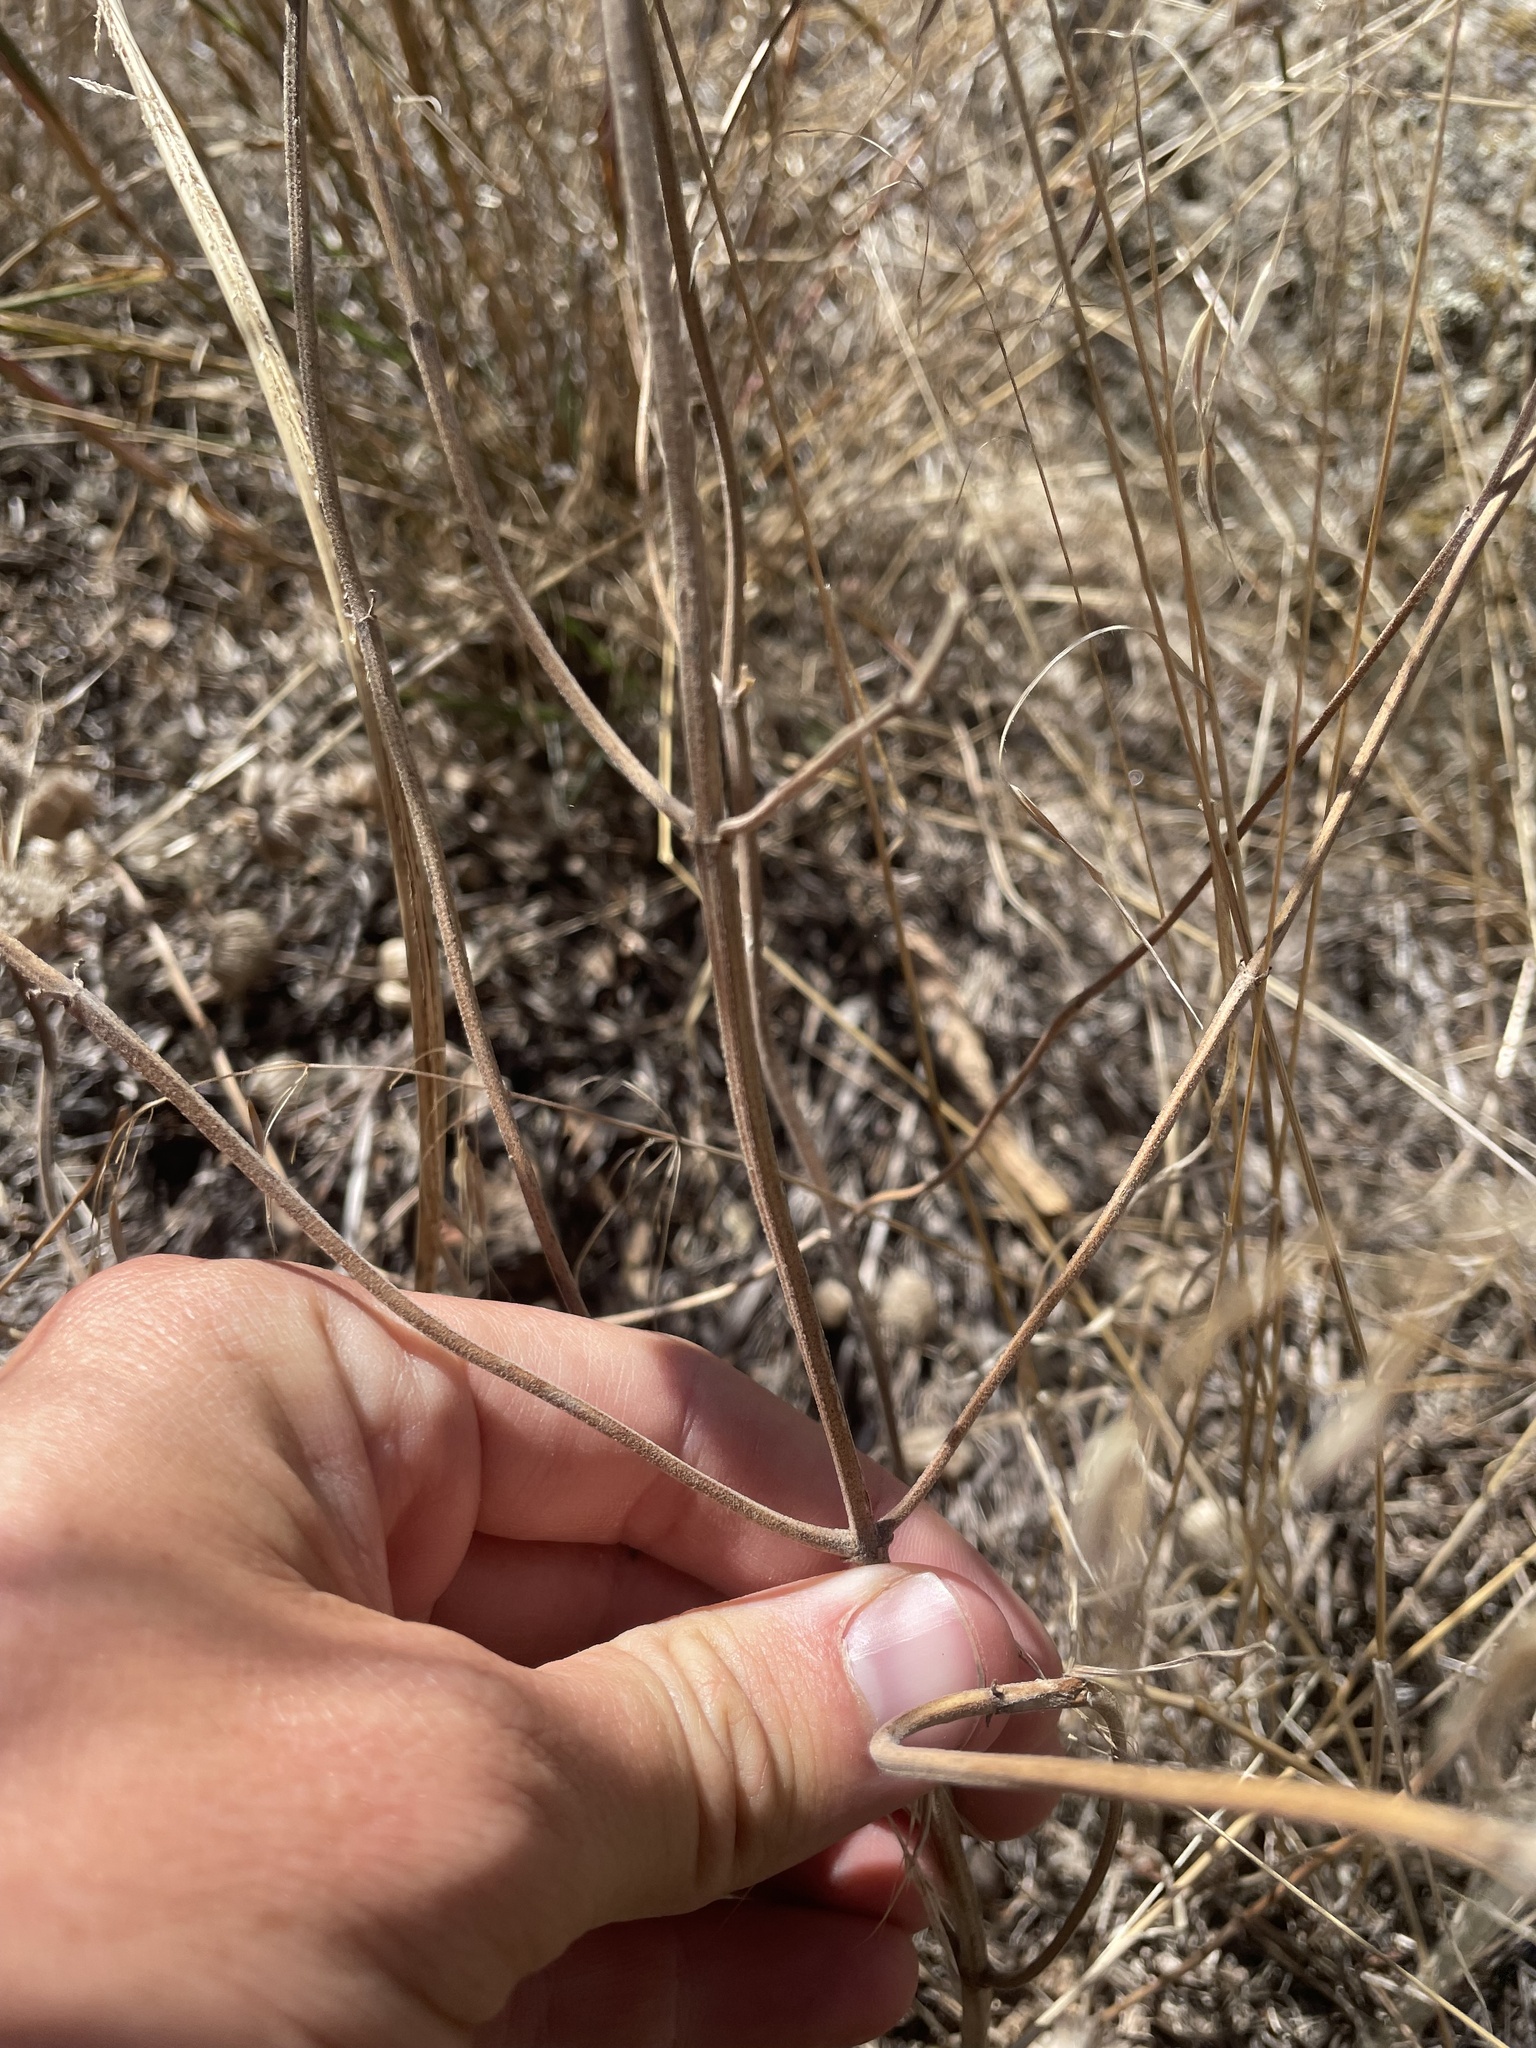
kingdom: Plantae
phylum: Tracheophyta
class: Magnoliopsida
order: Lamiales
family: Lamiaceae
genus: Monarda
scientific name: Monarda pectinata
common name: Plains beebalm
